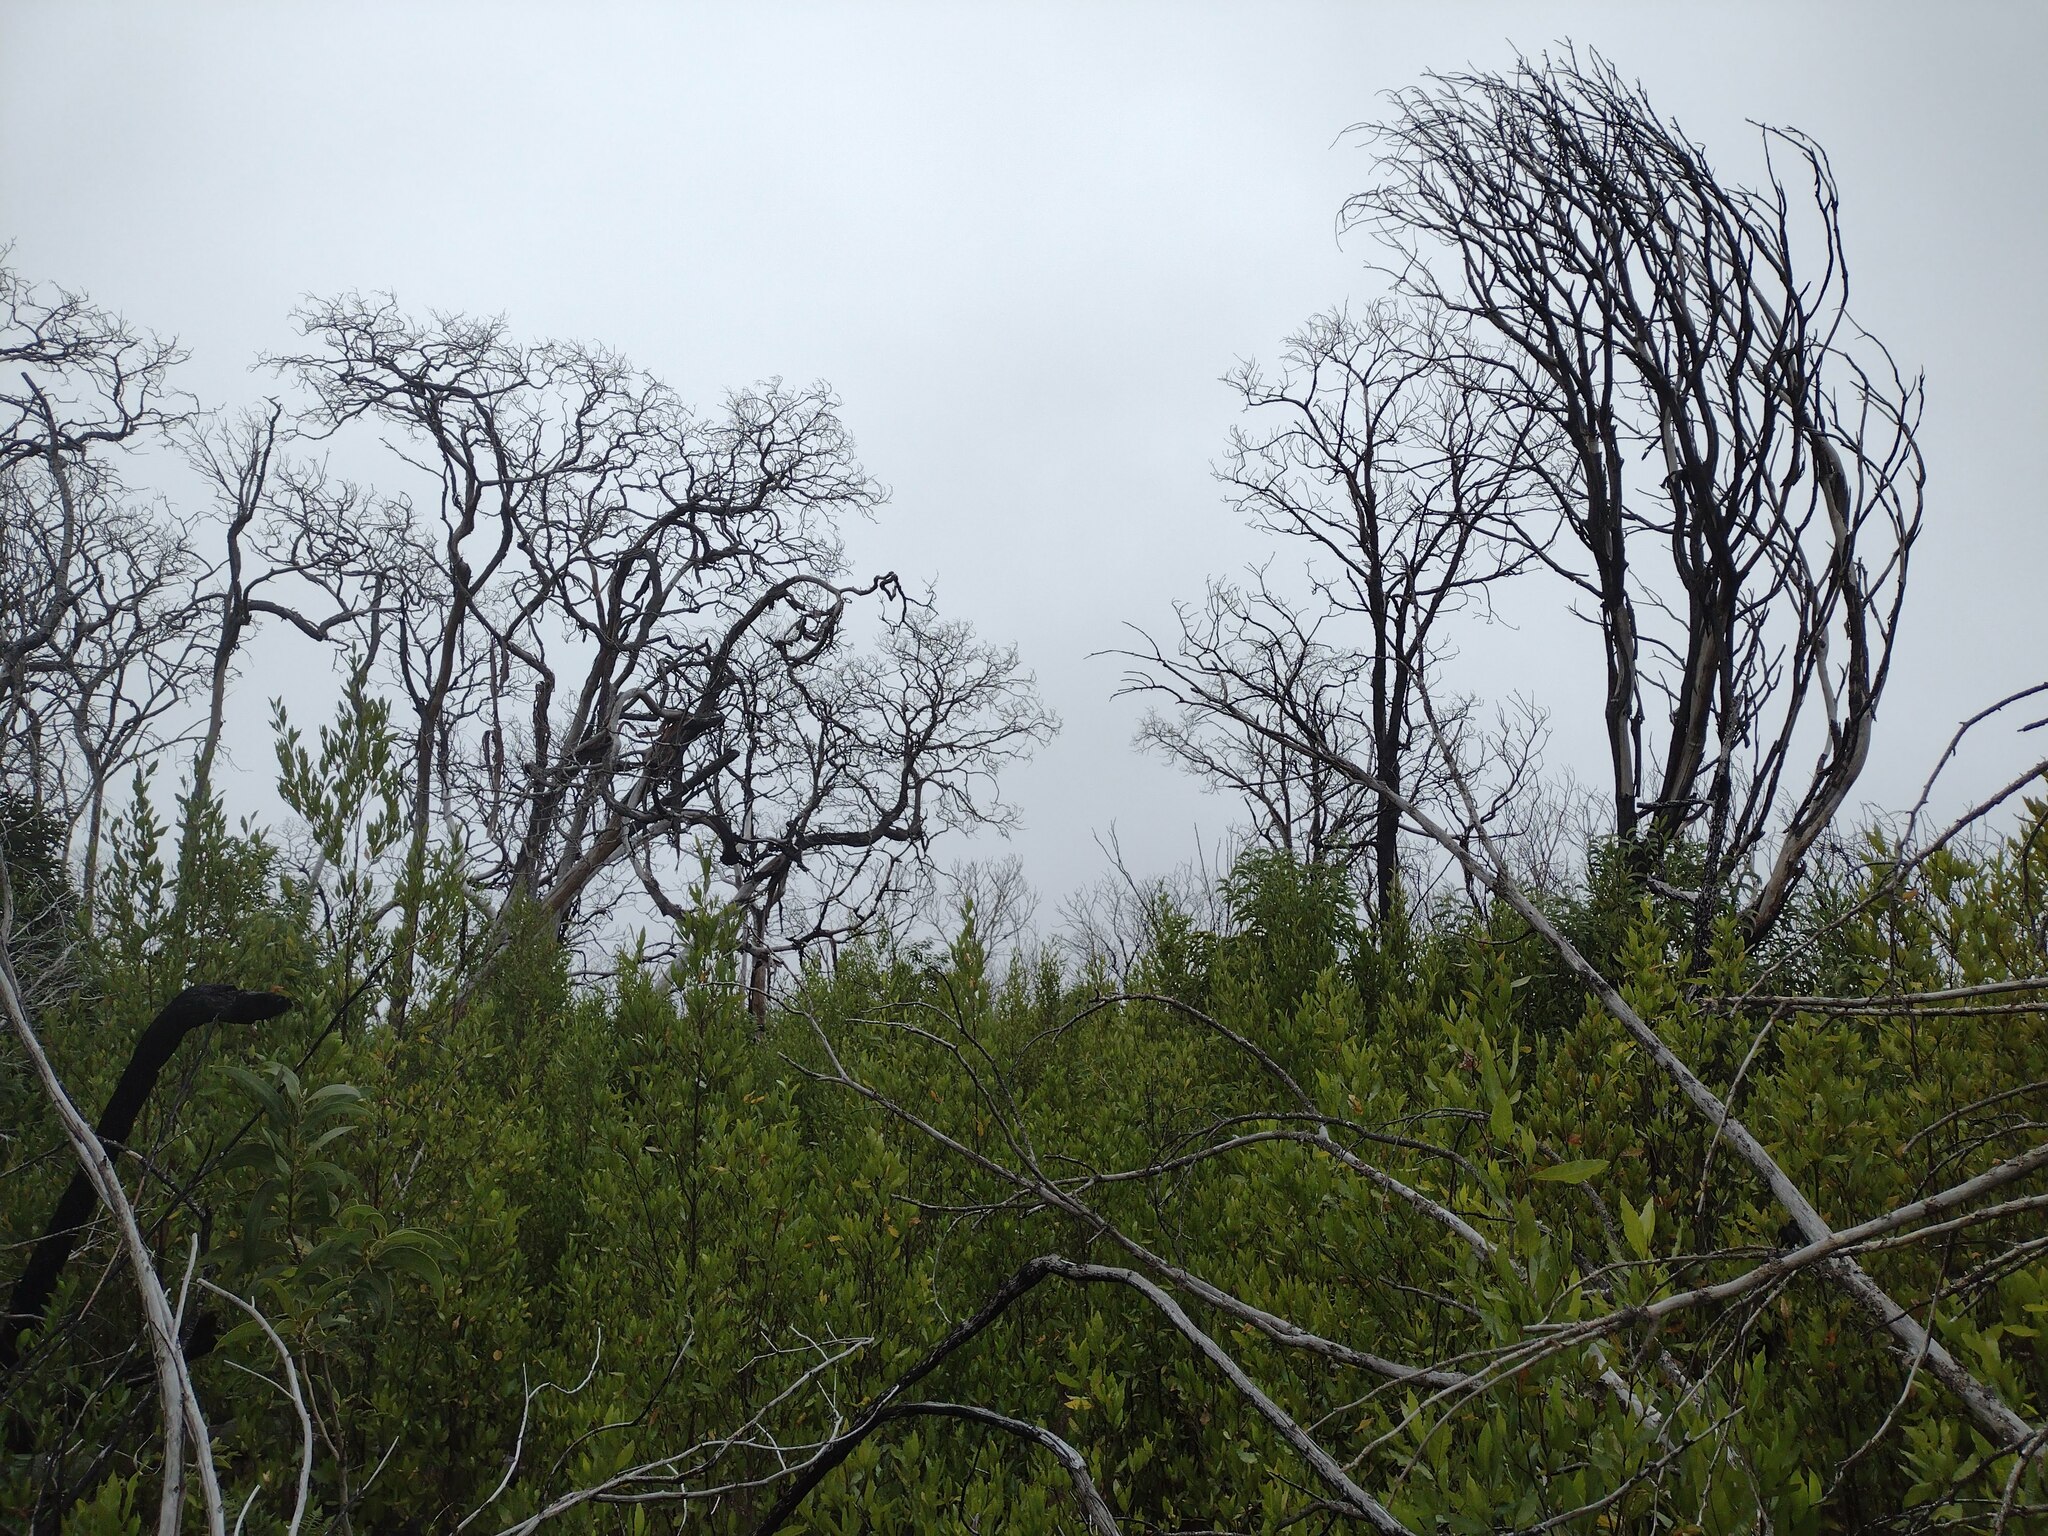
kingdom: Plantae
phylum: Tracheophyta
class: Magnoliopsida
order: Sapindales
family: Sapindaceae
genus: Dodonaea
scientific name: Dodonaea viscosa
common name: Hopbush
